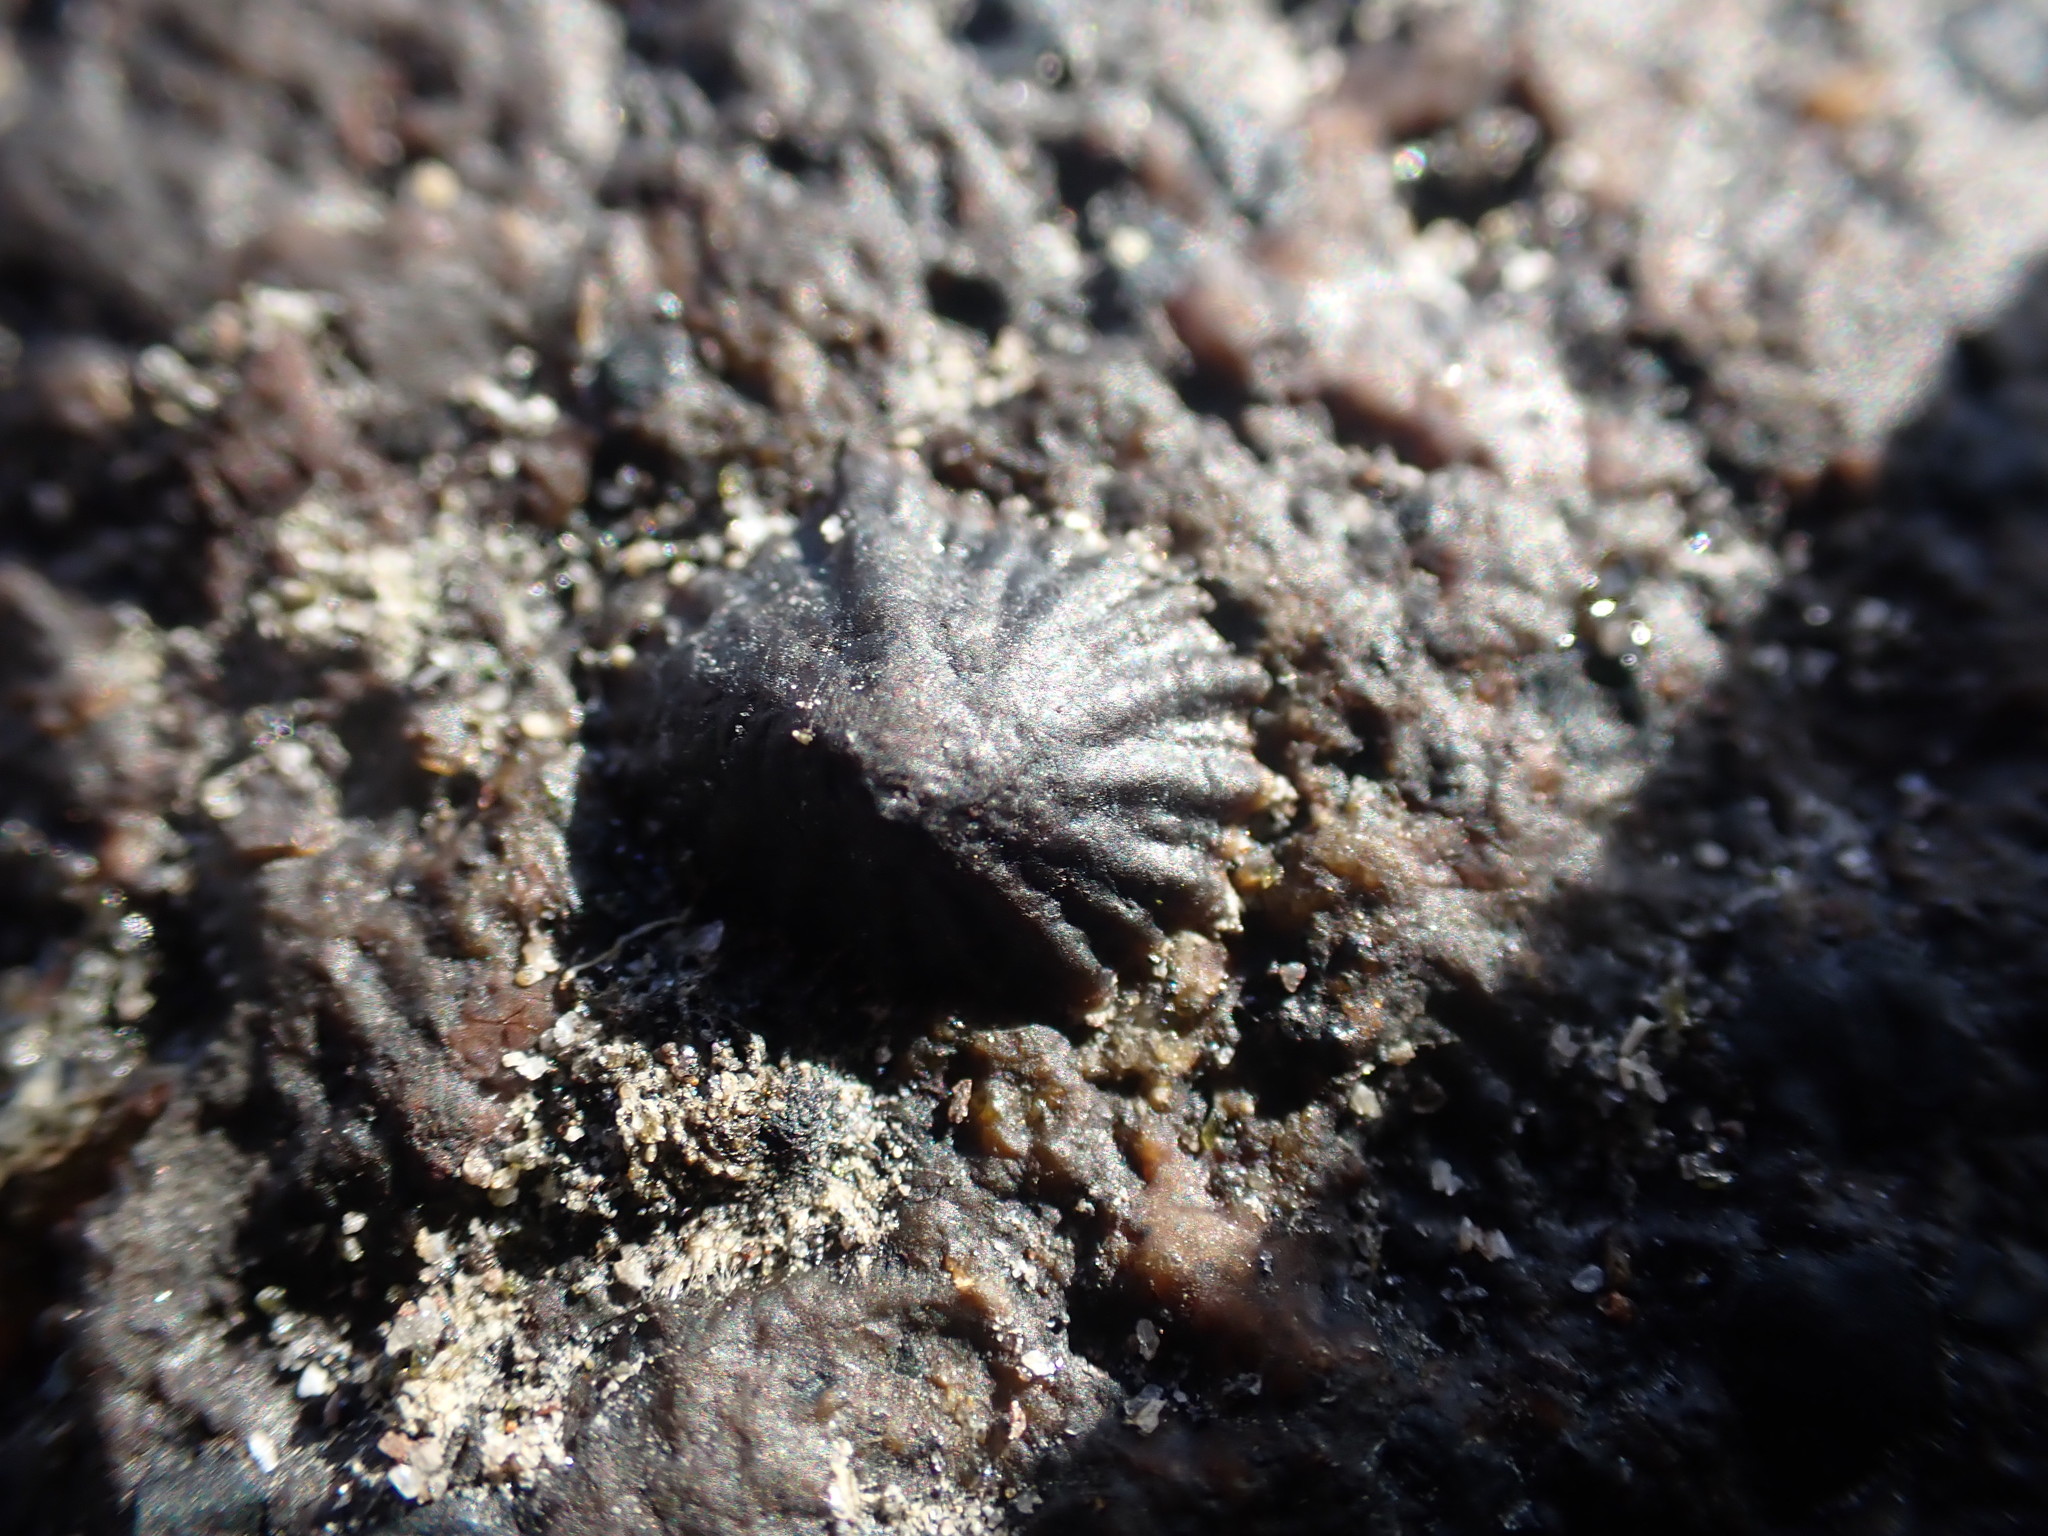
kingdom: Animalia
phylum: Mollusca
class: Gastropoda
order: Siphonariida
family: Siphonariidae
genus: Siphonaria
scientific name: Siphonaria australis
